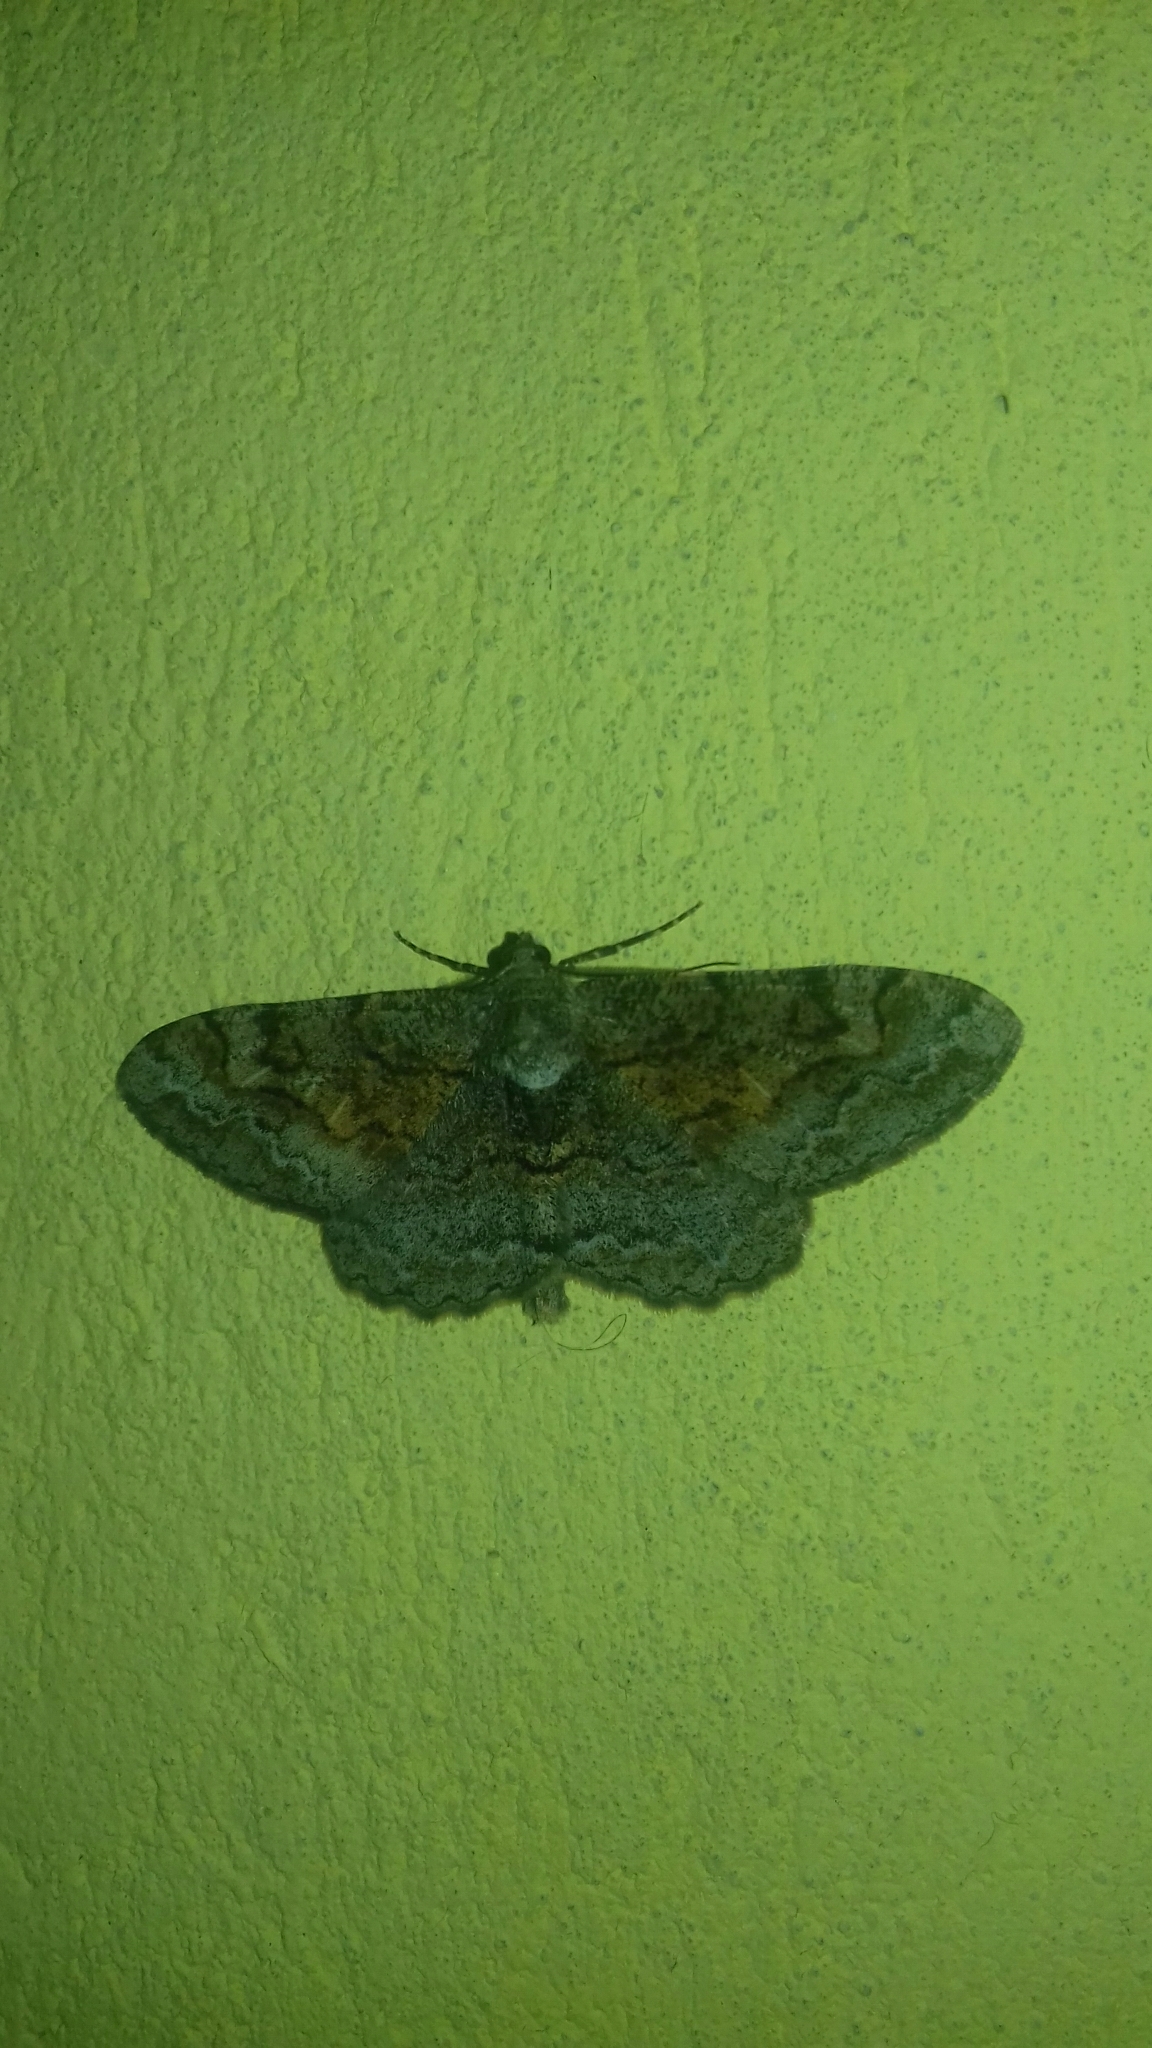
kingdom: Animalia
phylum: Arthropoda
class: Insecta
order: Lepidoptera
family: Geometridae
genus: Alcis
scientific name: Alcis repandata
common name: Mottled beauty
